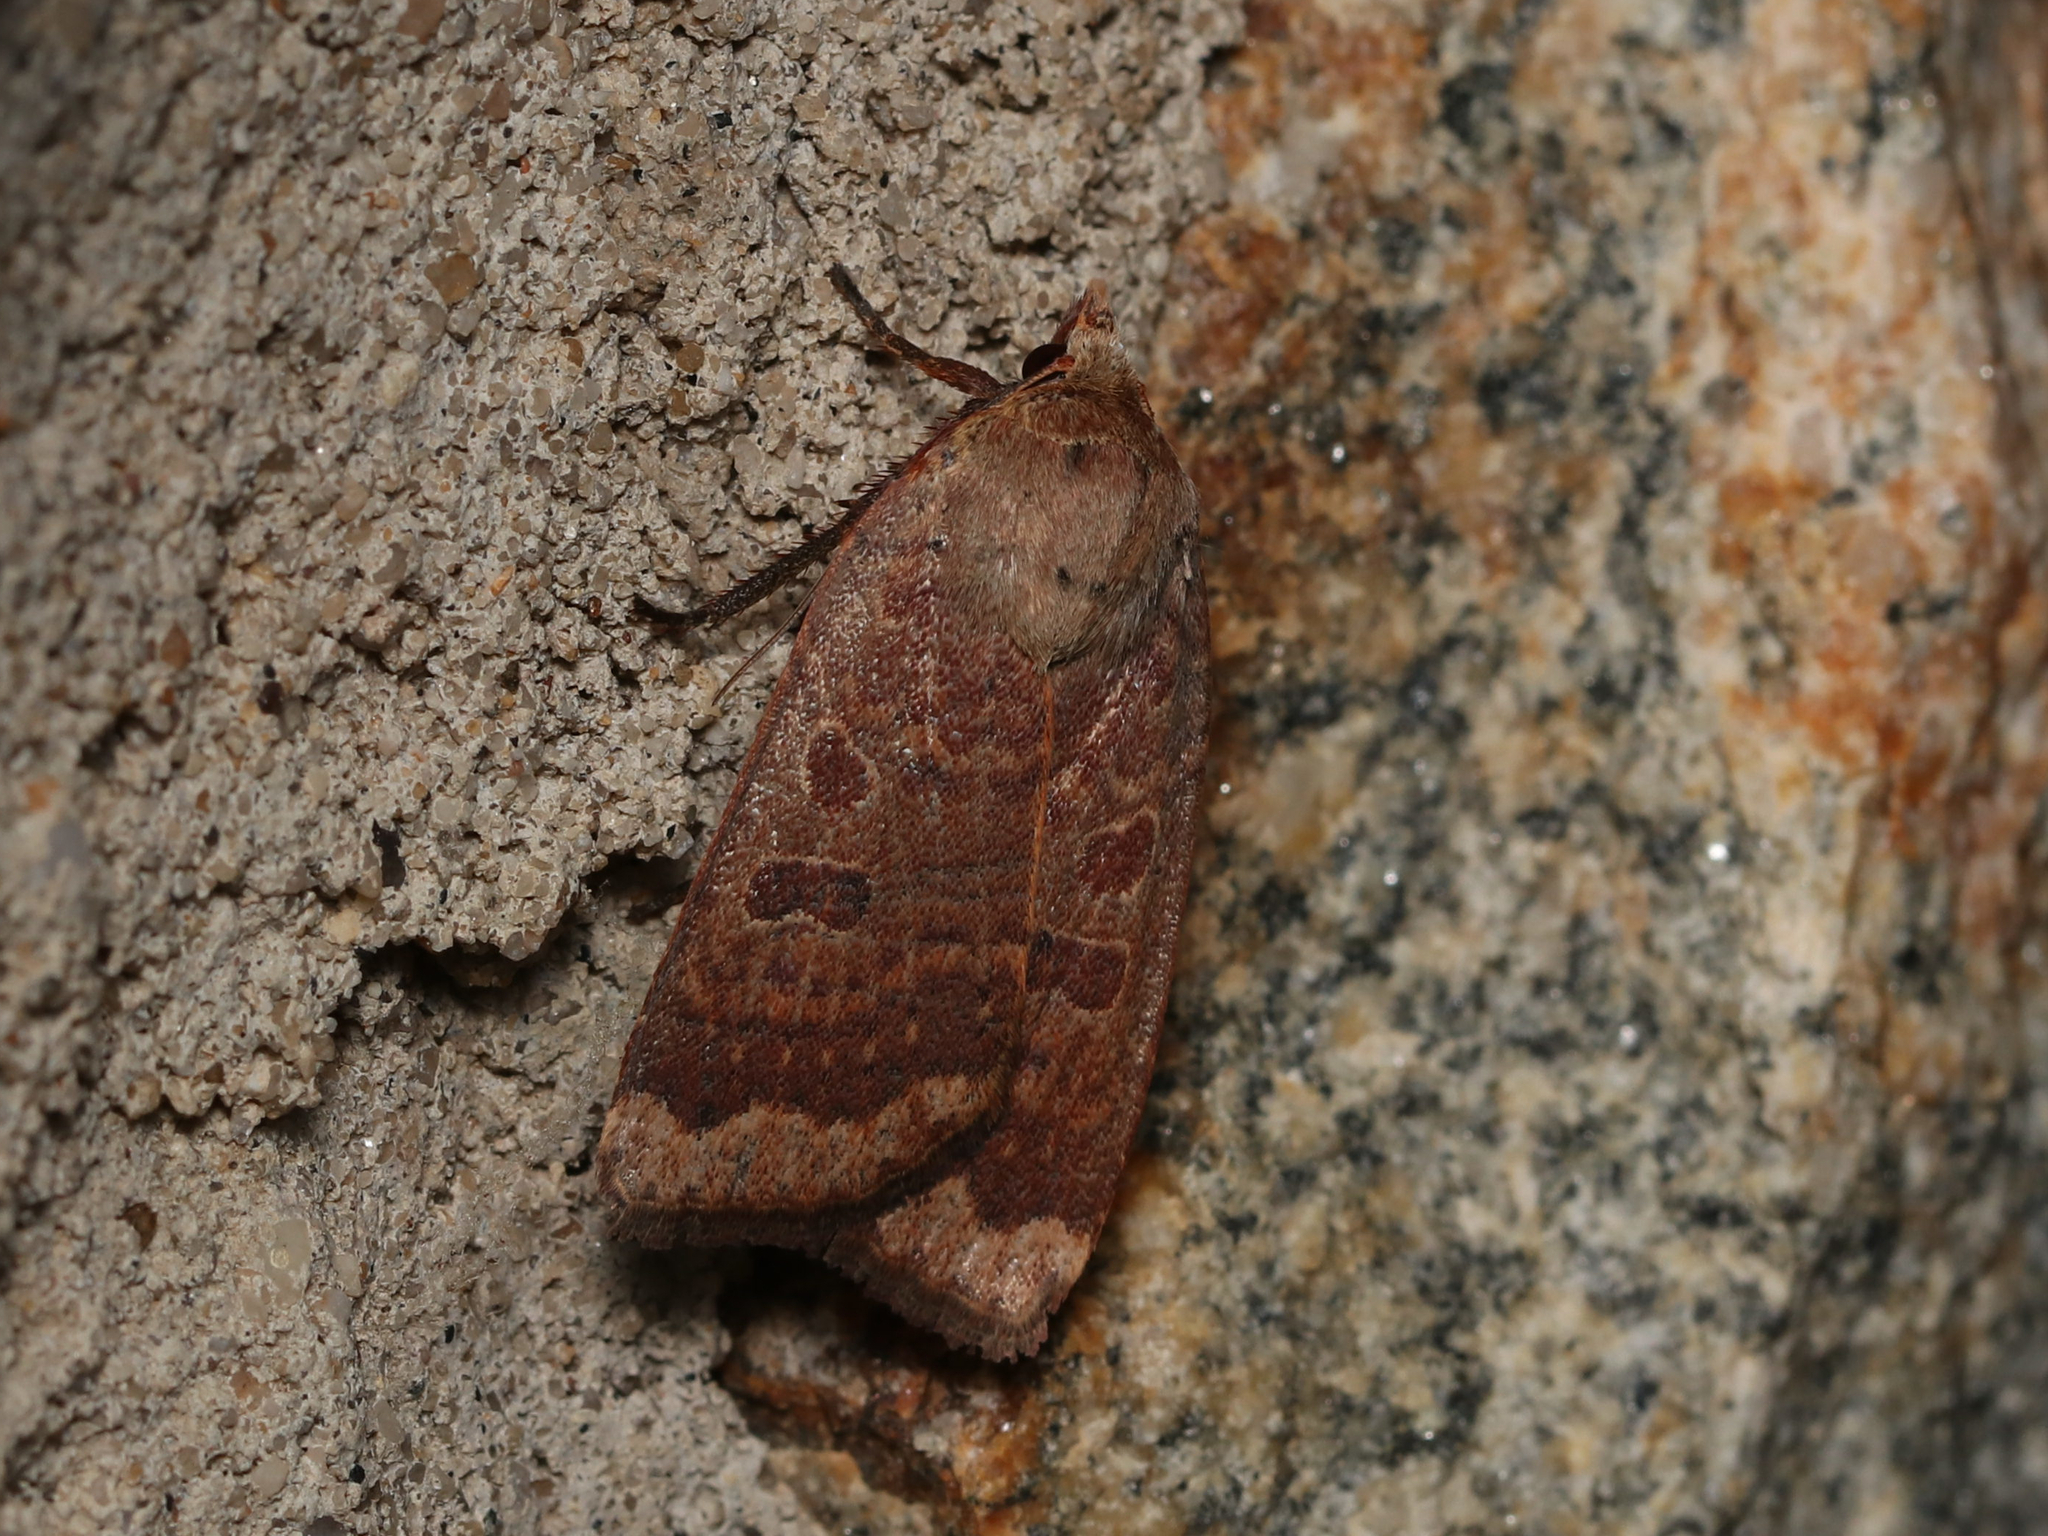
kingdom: Animalia
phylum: Arthropoda
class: Insecta
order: Lepidoptera
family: Noctuidae
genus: Abagrotis
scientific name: Abagrotis alternata
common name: Greater red dart
